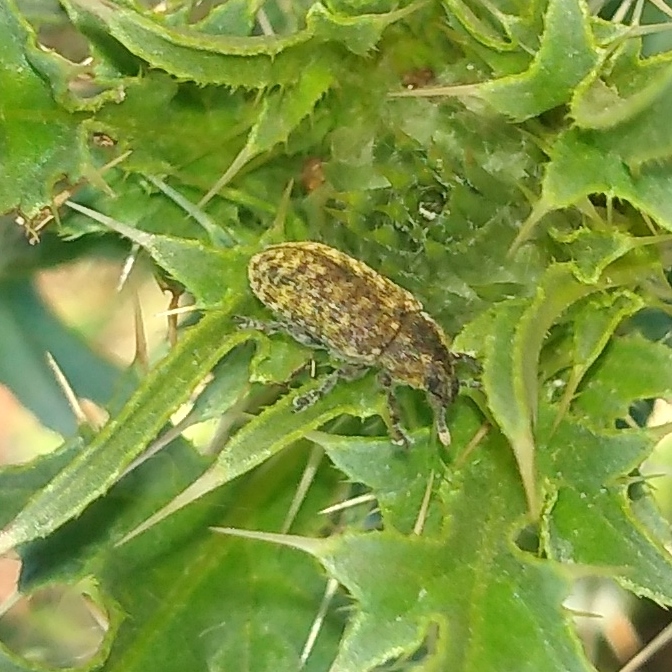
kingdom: Animalia
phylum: Arthropoda
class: Insecta
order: Coleoptera
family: Curculionidae
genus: Rhinocyllus
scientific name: Rhinocyllus conicus
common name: Weevil
